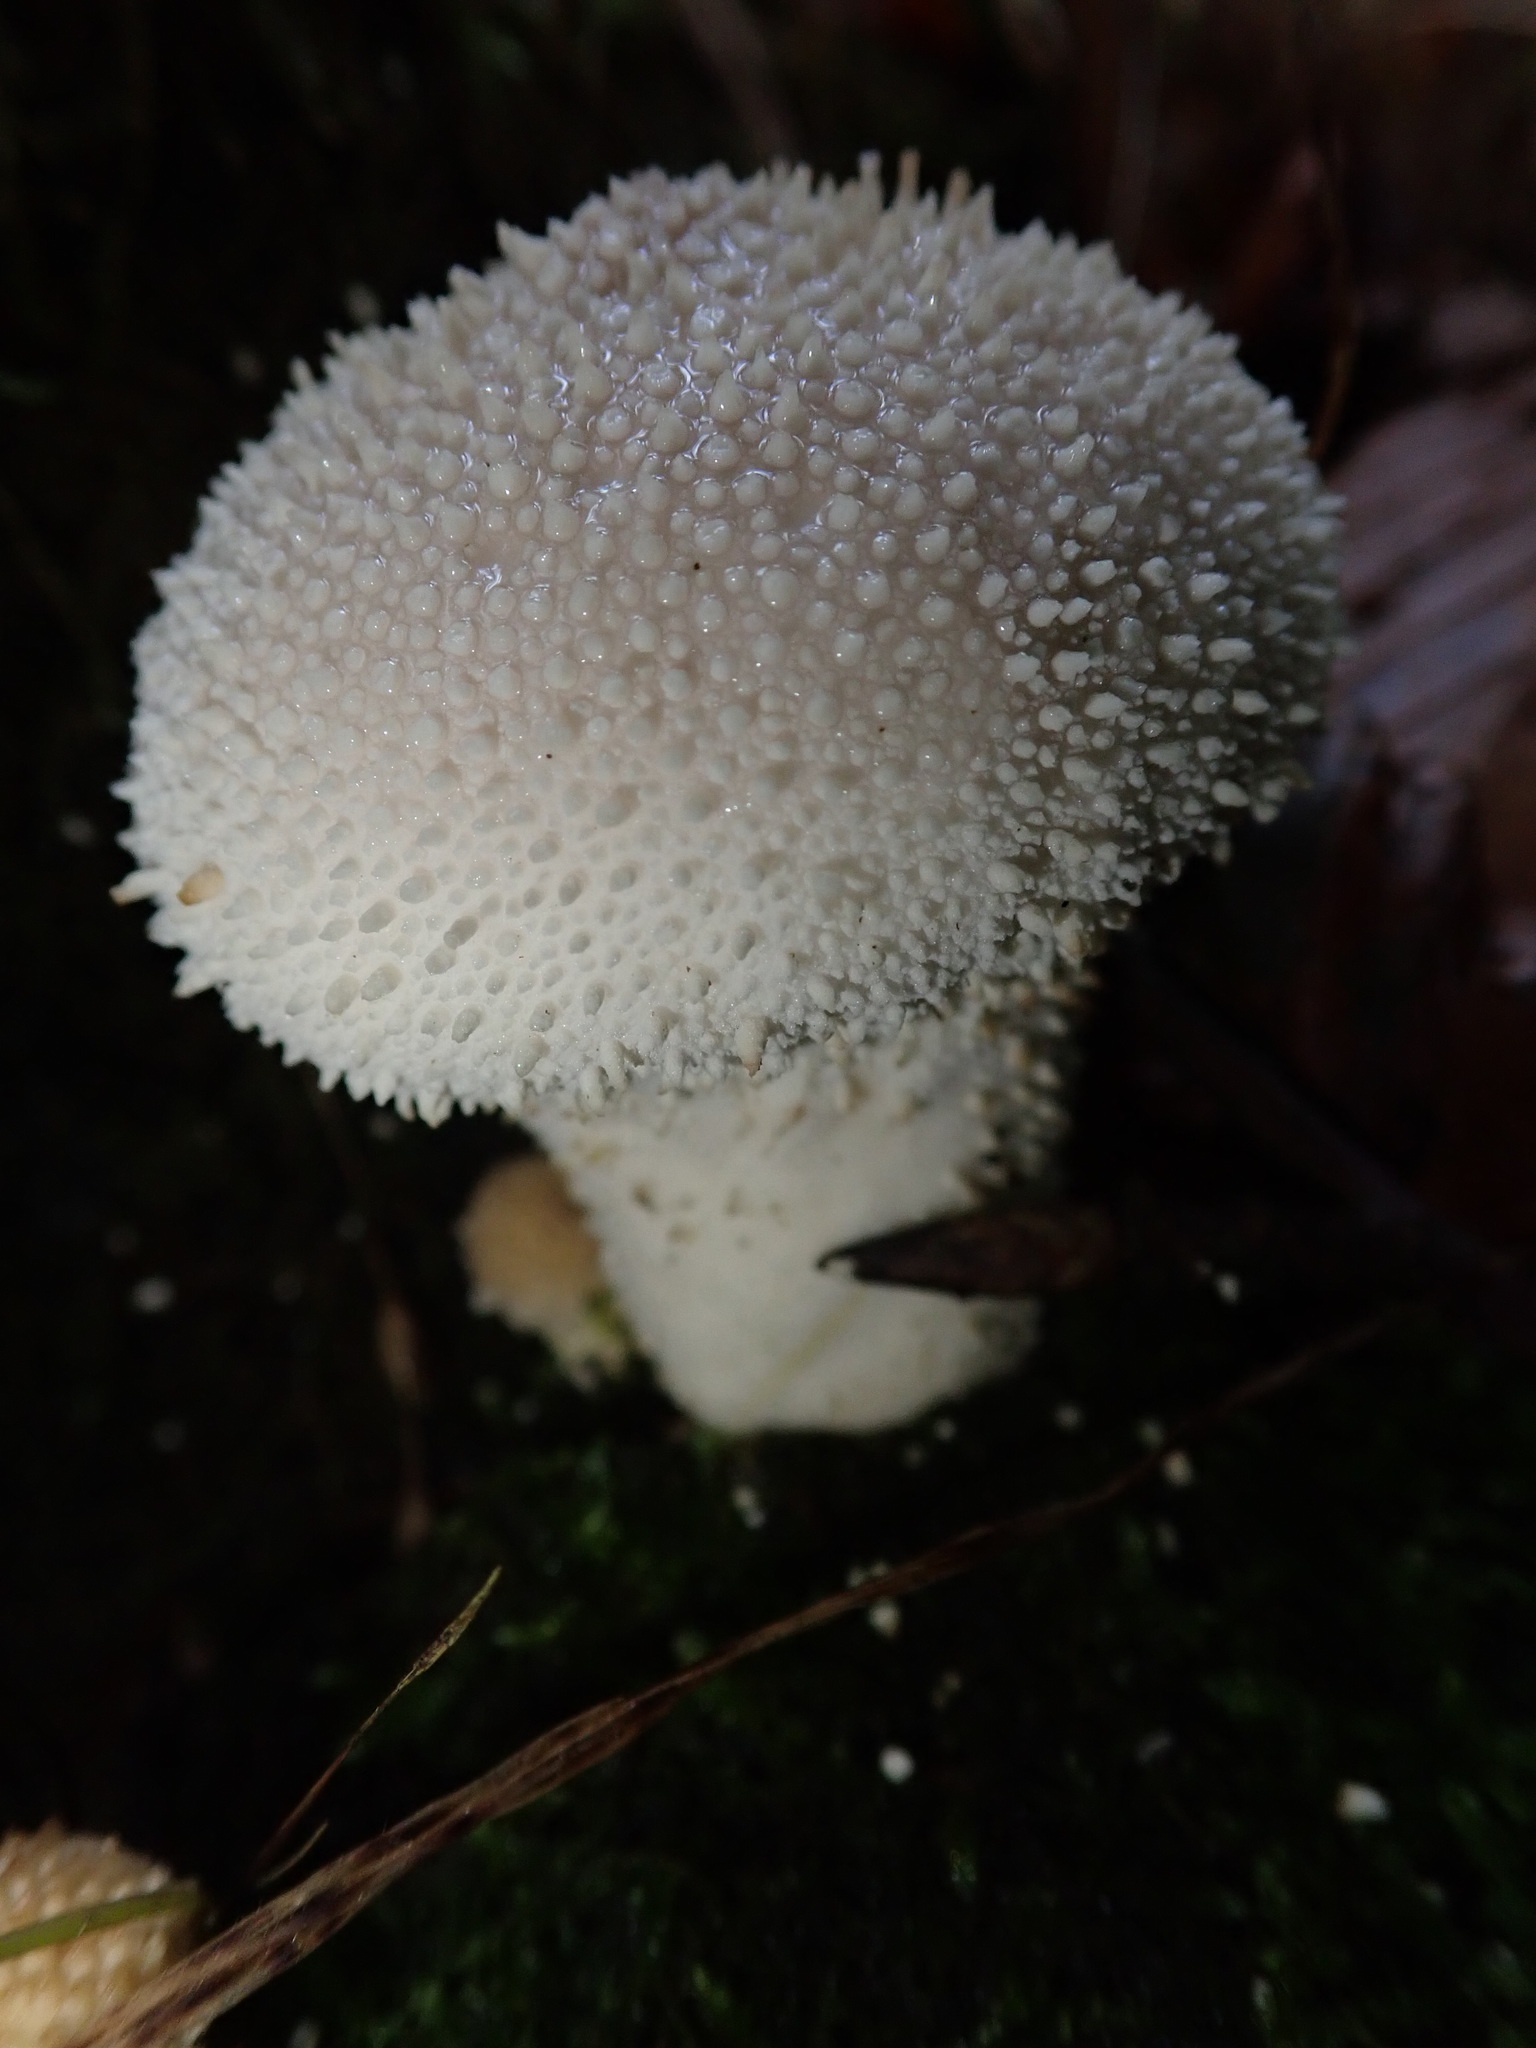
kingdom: Fungi
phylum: Basidiomycota
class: Agaricomycetes
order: Agaricales
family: Lycoperdaceae
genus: Lycoperdon
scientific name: Lycoperdon perlatum
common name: Common puffball
